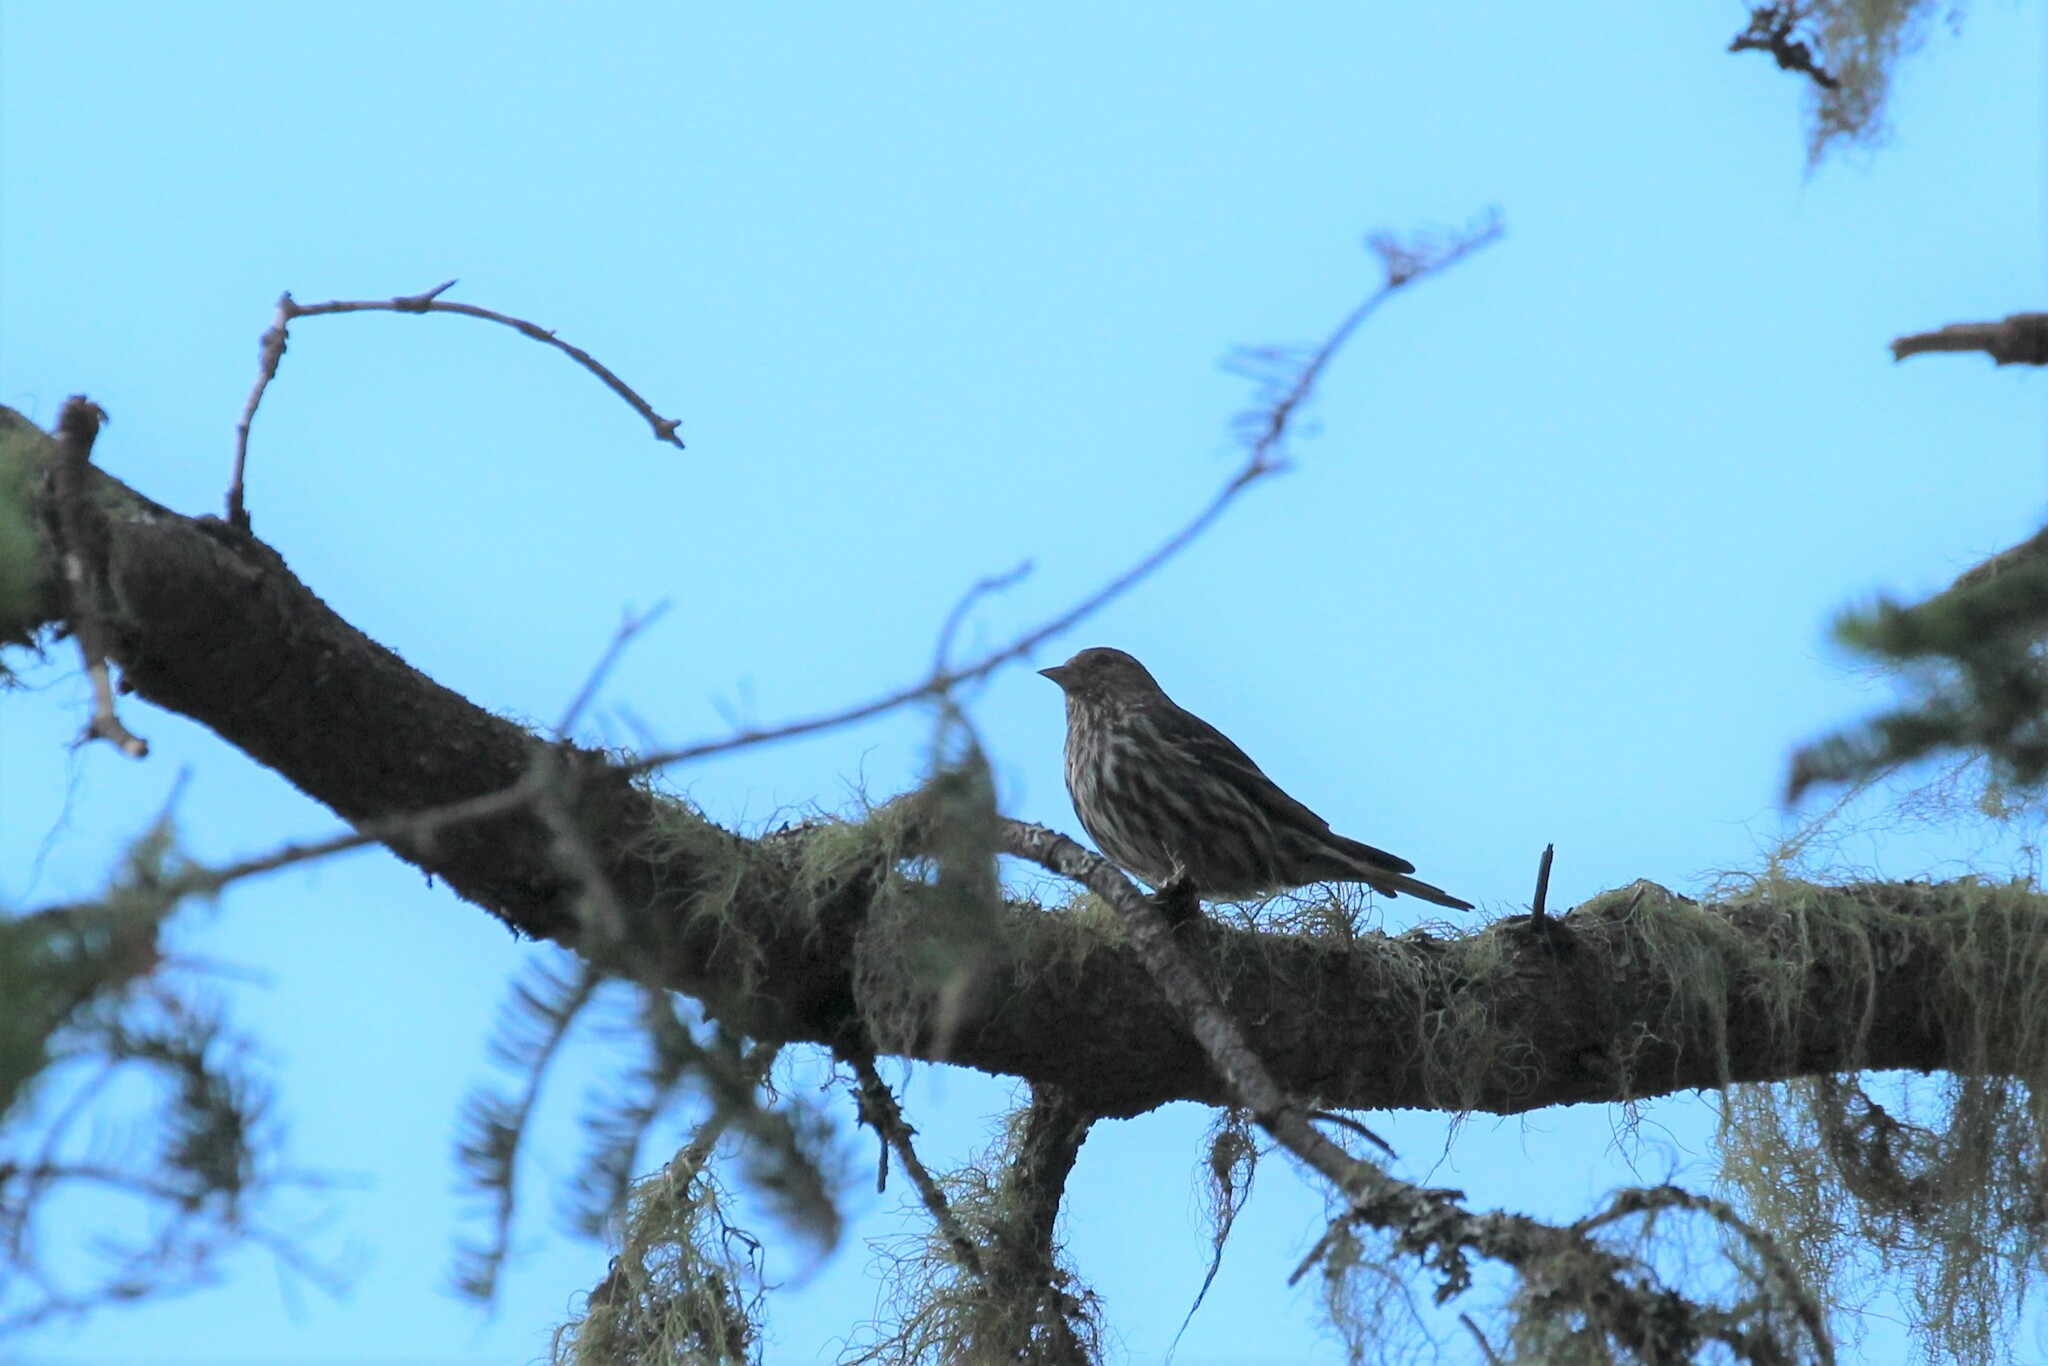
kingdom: Animalia
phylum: Chordata
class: Aves
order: Passeriformes
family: Fringillidae
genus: Spinus
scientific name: Spinus pinus
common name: Pine siskin
